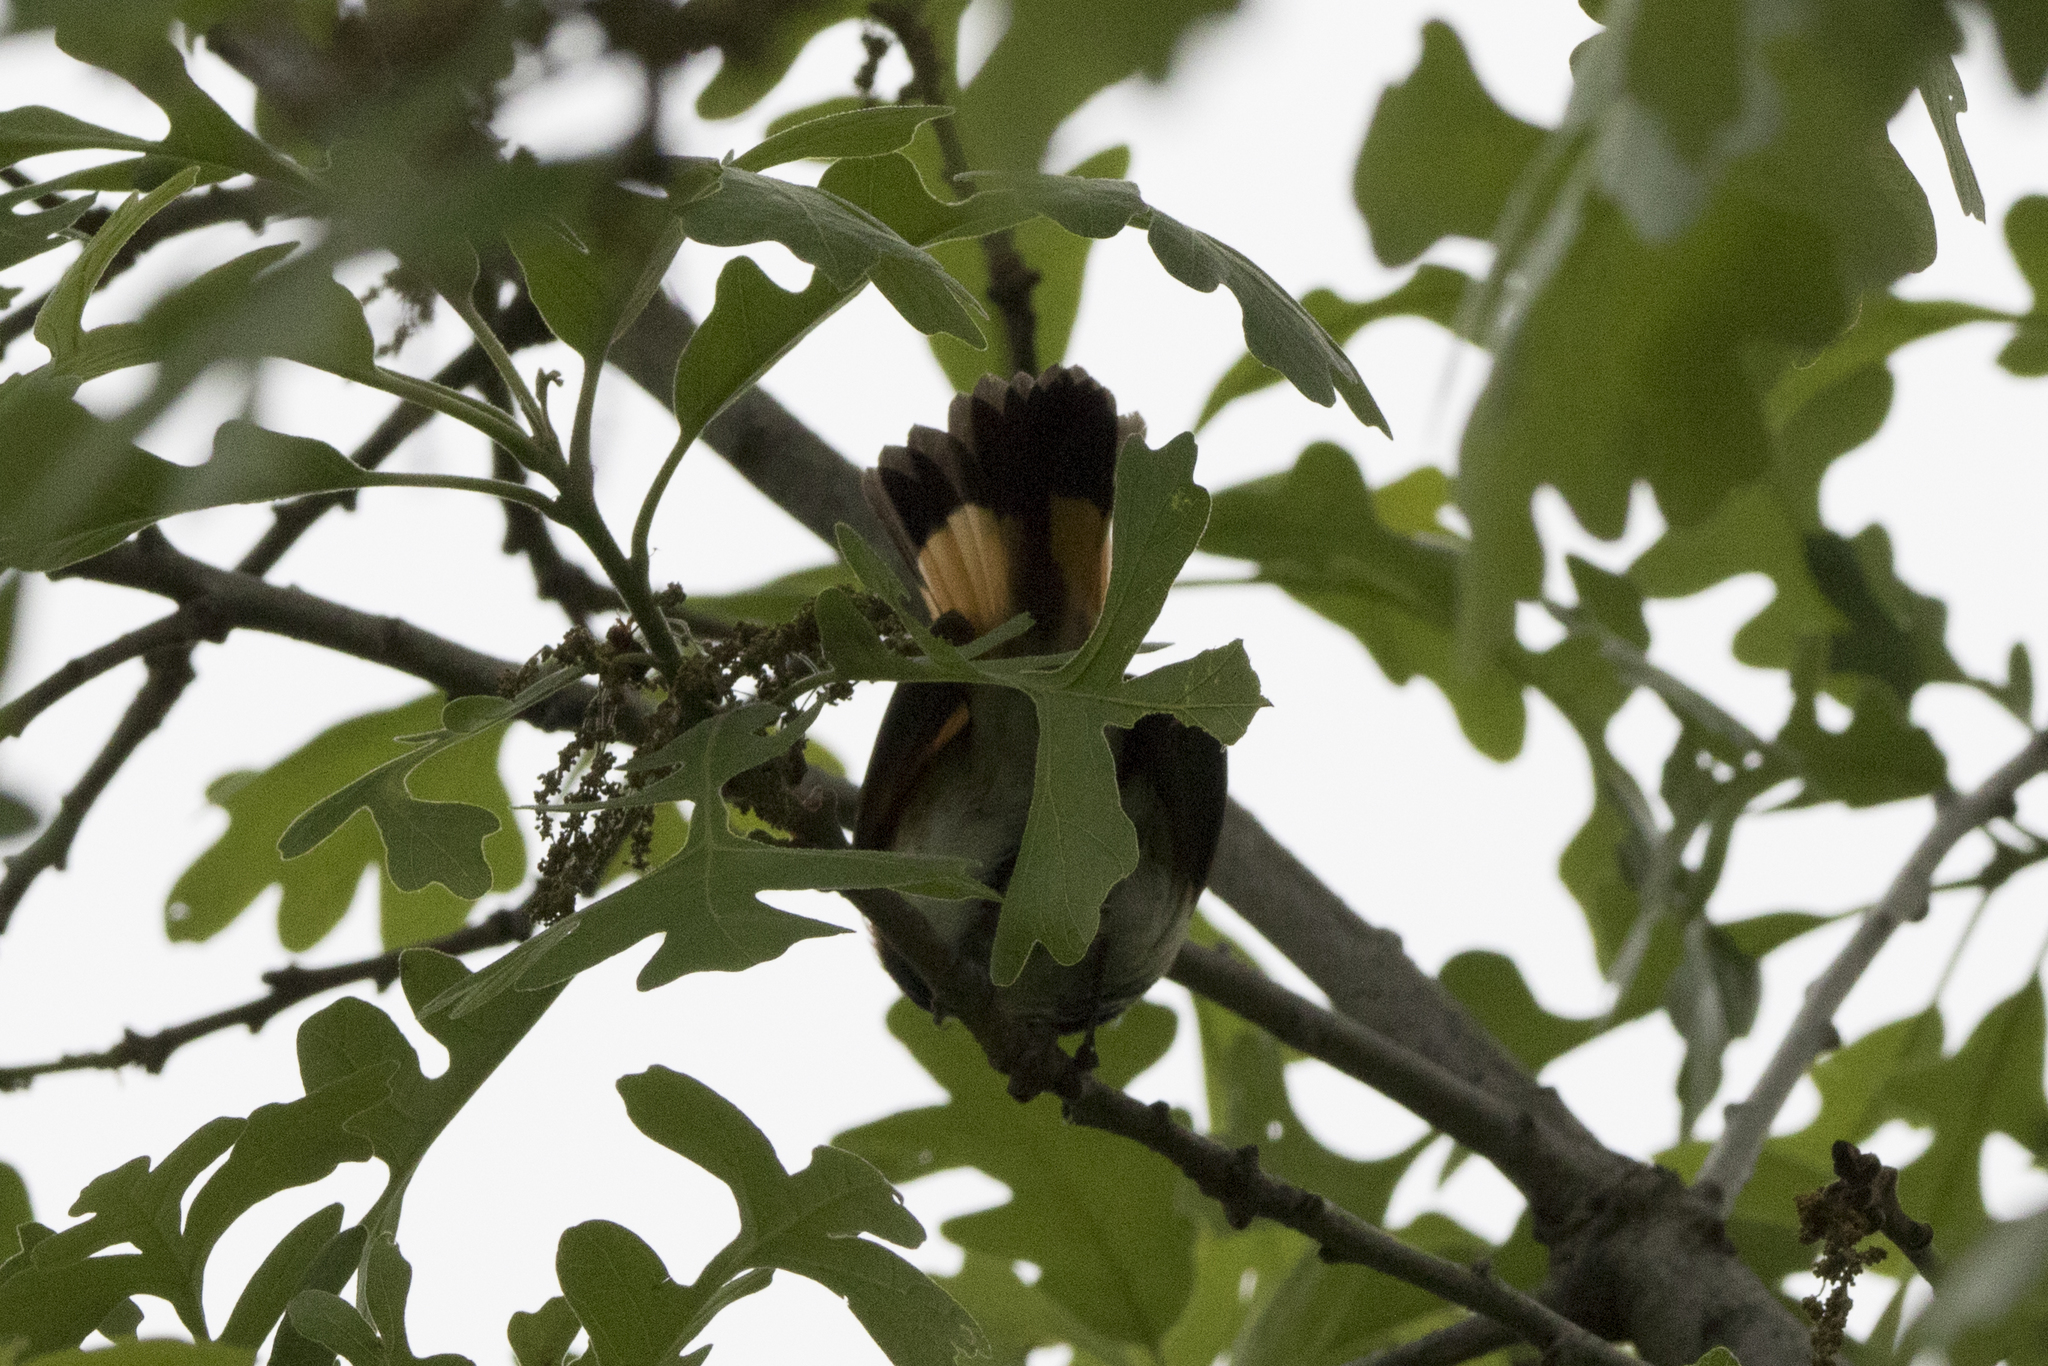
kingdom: Animalia
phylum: Chordata
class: Aves
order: Passeriformes
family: Parulidae
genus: Setophaga
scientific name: Setophaga ruticilla
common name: American redstart
